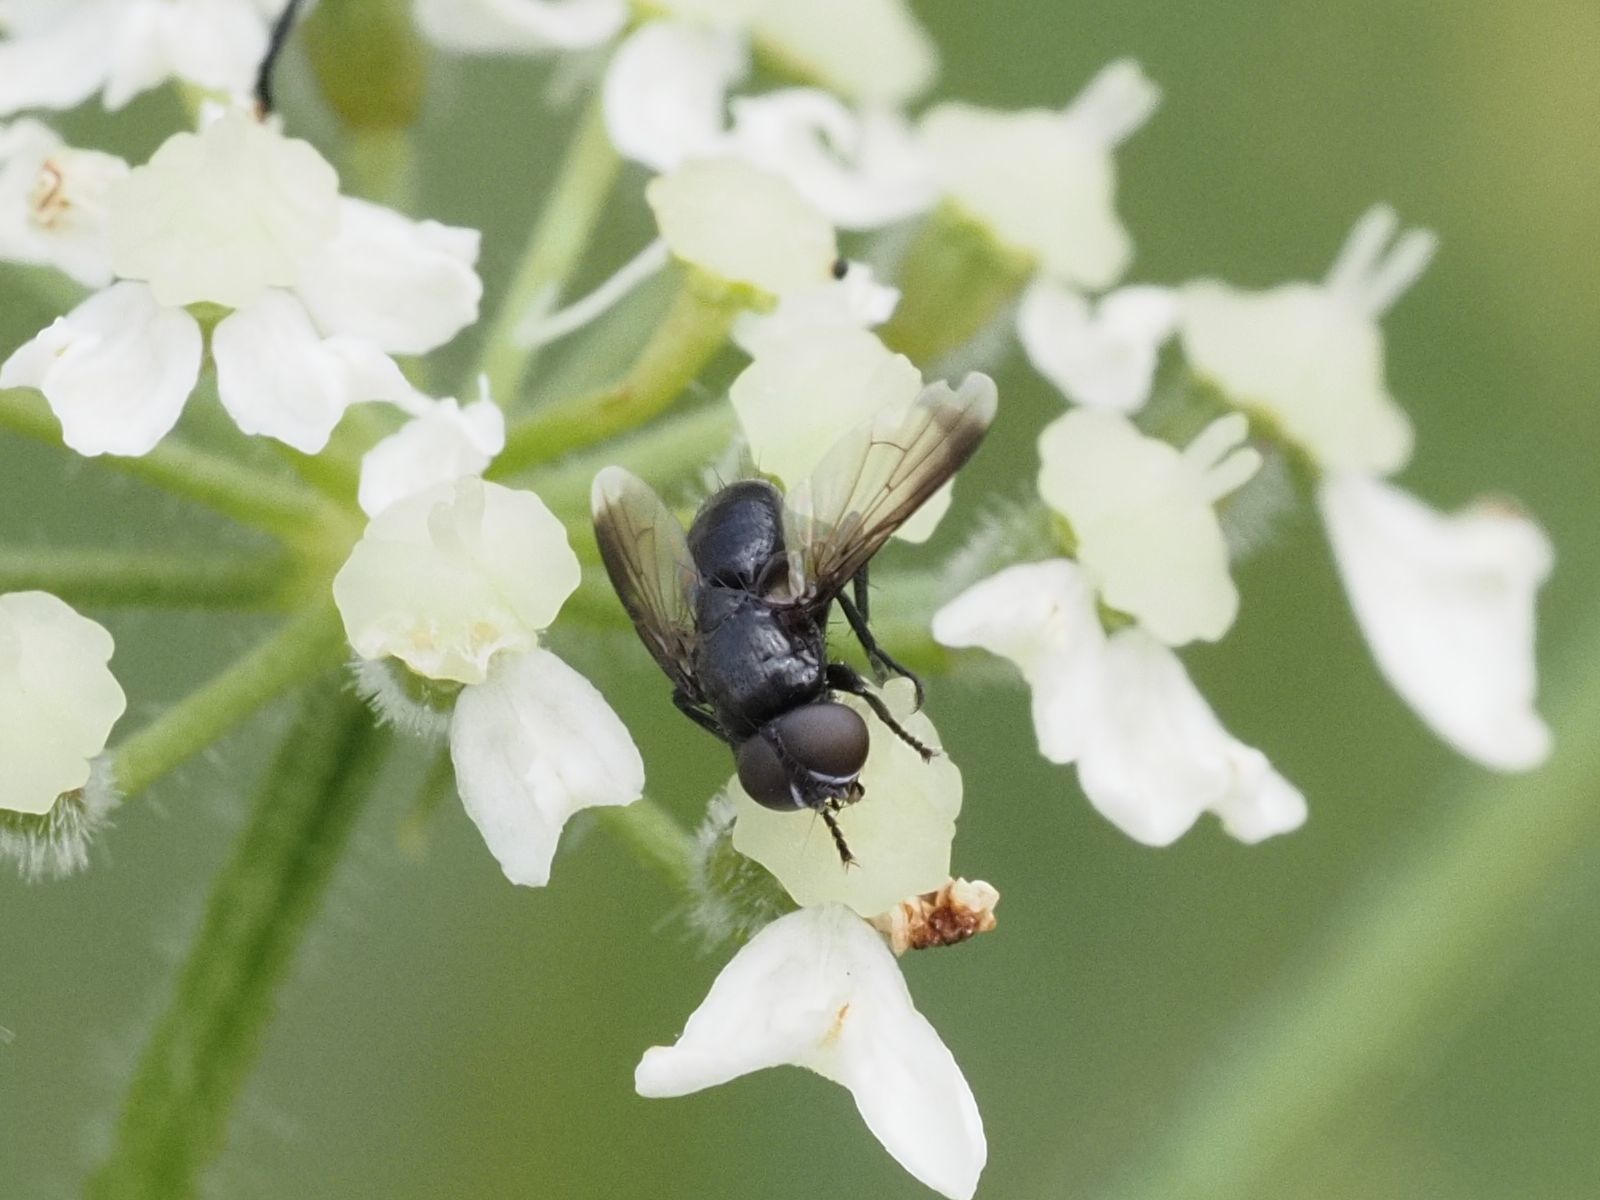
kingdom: Animalia
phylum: Arthropoda
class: Insecta
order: Diptera
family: Tachinidae
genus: Catharosia
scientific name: Catharosia pygmaea
